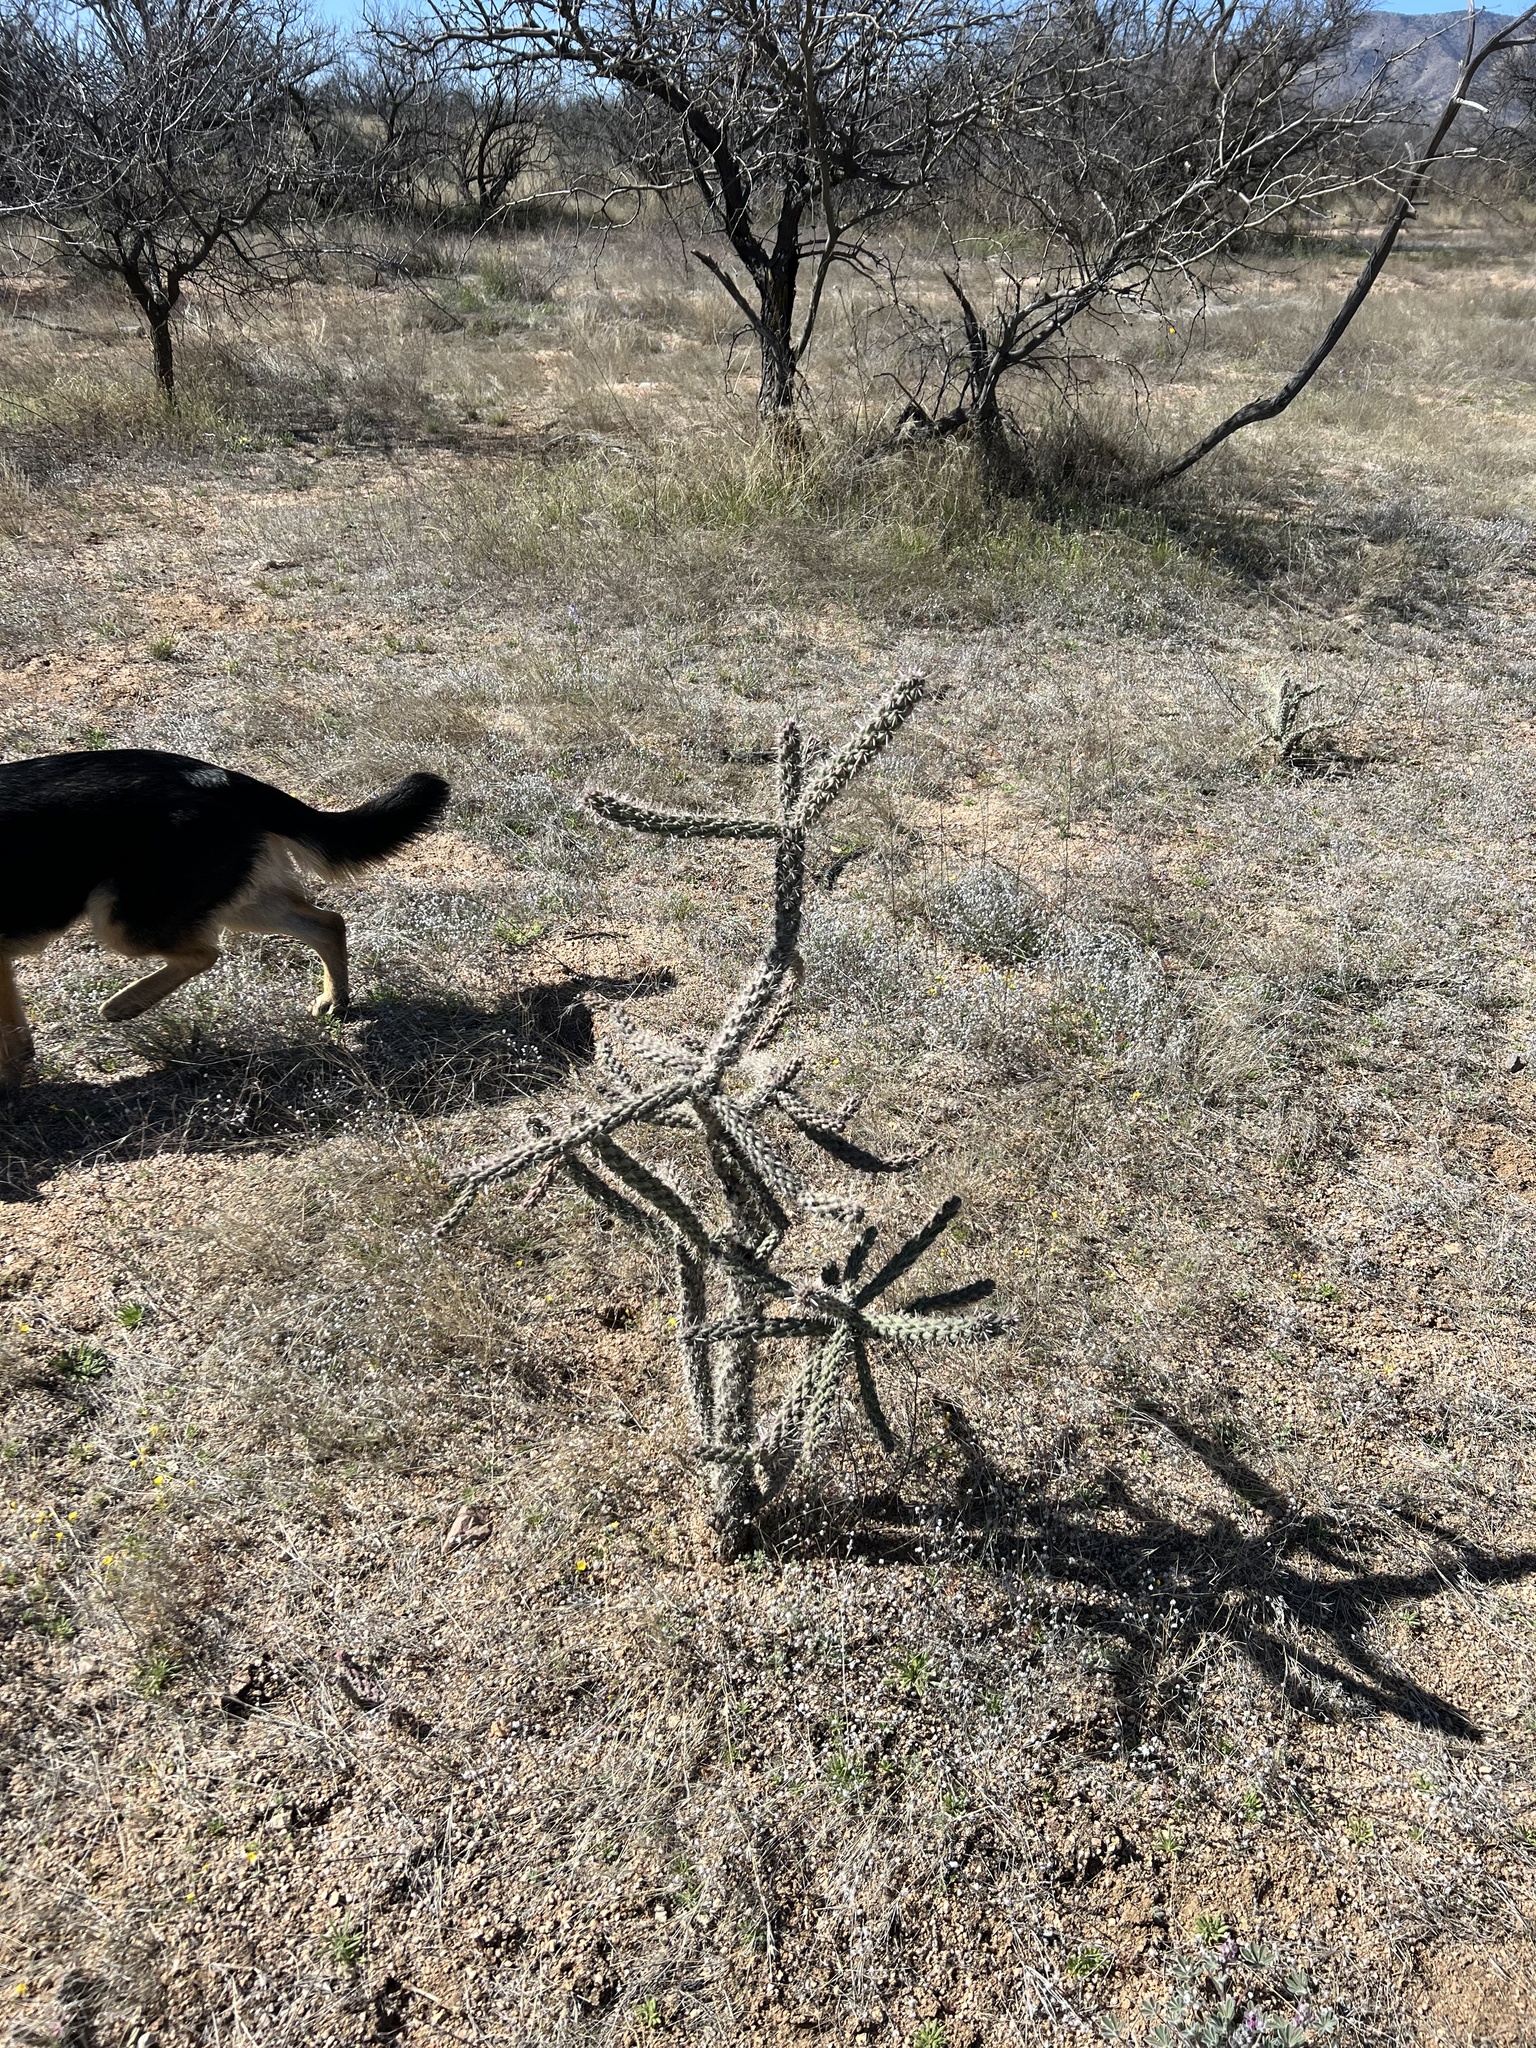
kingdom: Plantae
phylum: Tracheophyta
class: Magnoliopsida
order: Caryophyllales
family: Cactaceae
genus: Cylindropuntia
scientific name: Cylindropuntia imbricata
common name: Candelabrum cactus
